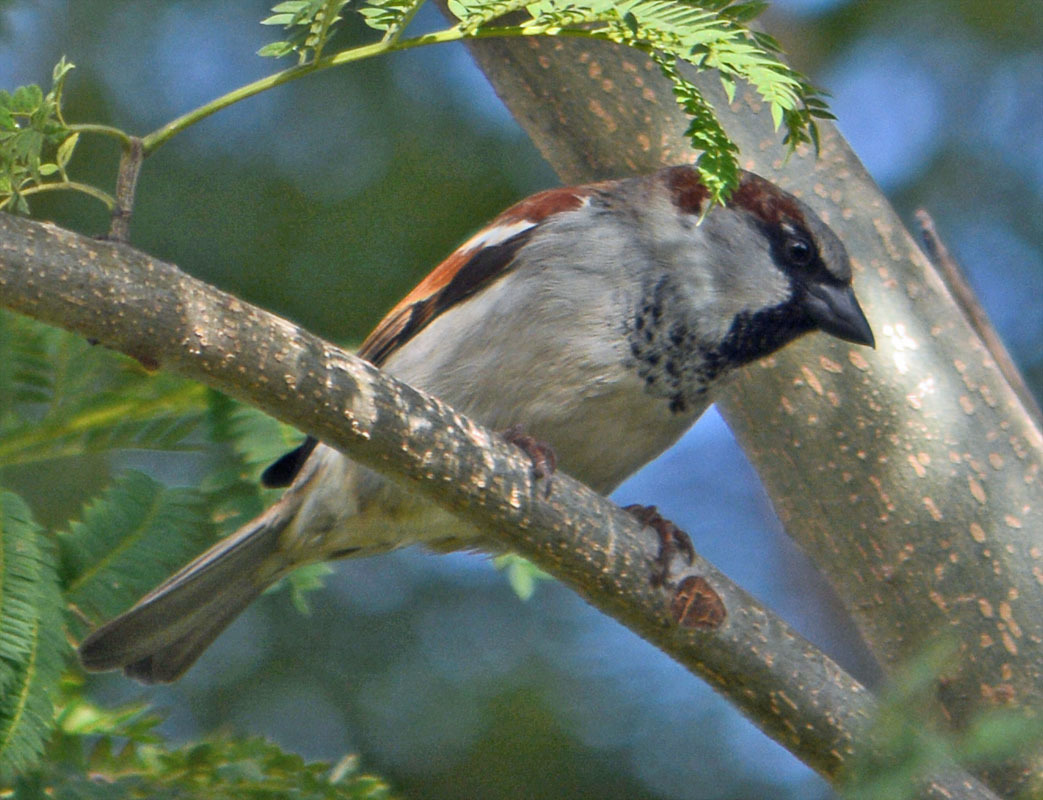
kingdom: Animalia
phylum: Chordata
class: Aves
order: Passeriformes
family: Passeridae
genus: Passer
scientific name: Passer domesticus
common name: House sparrow
